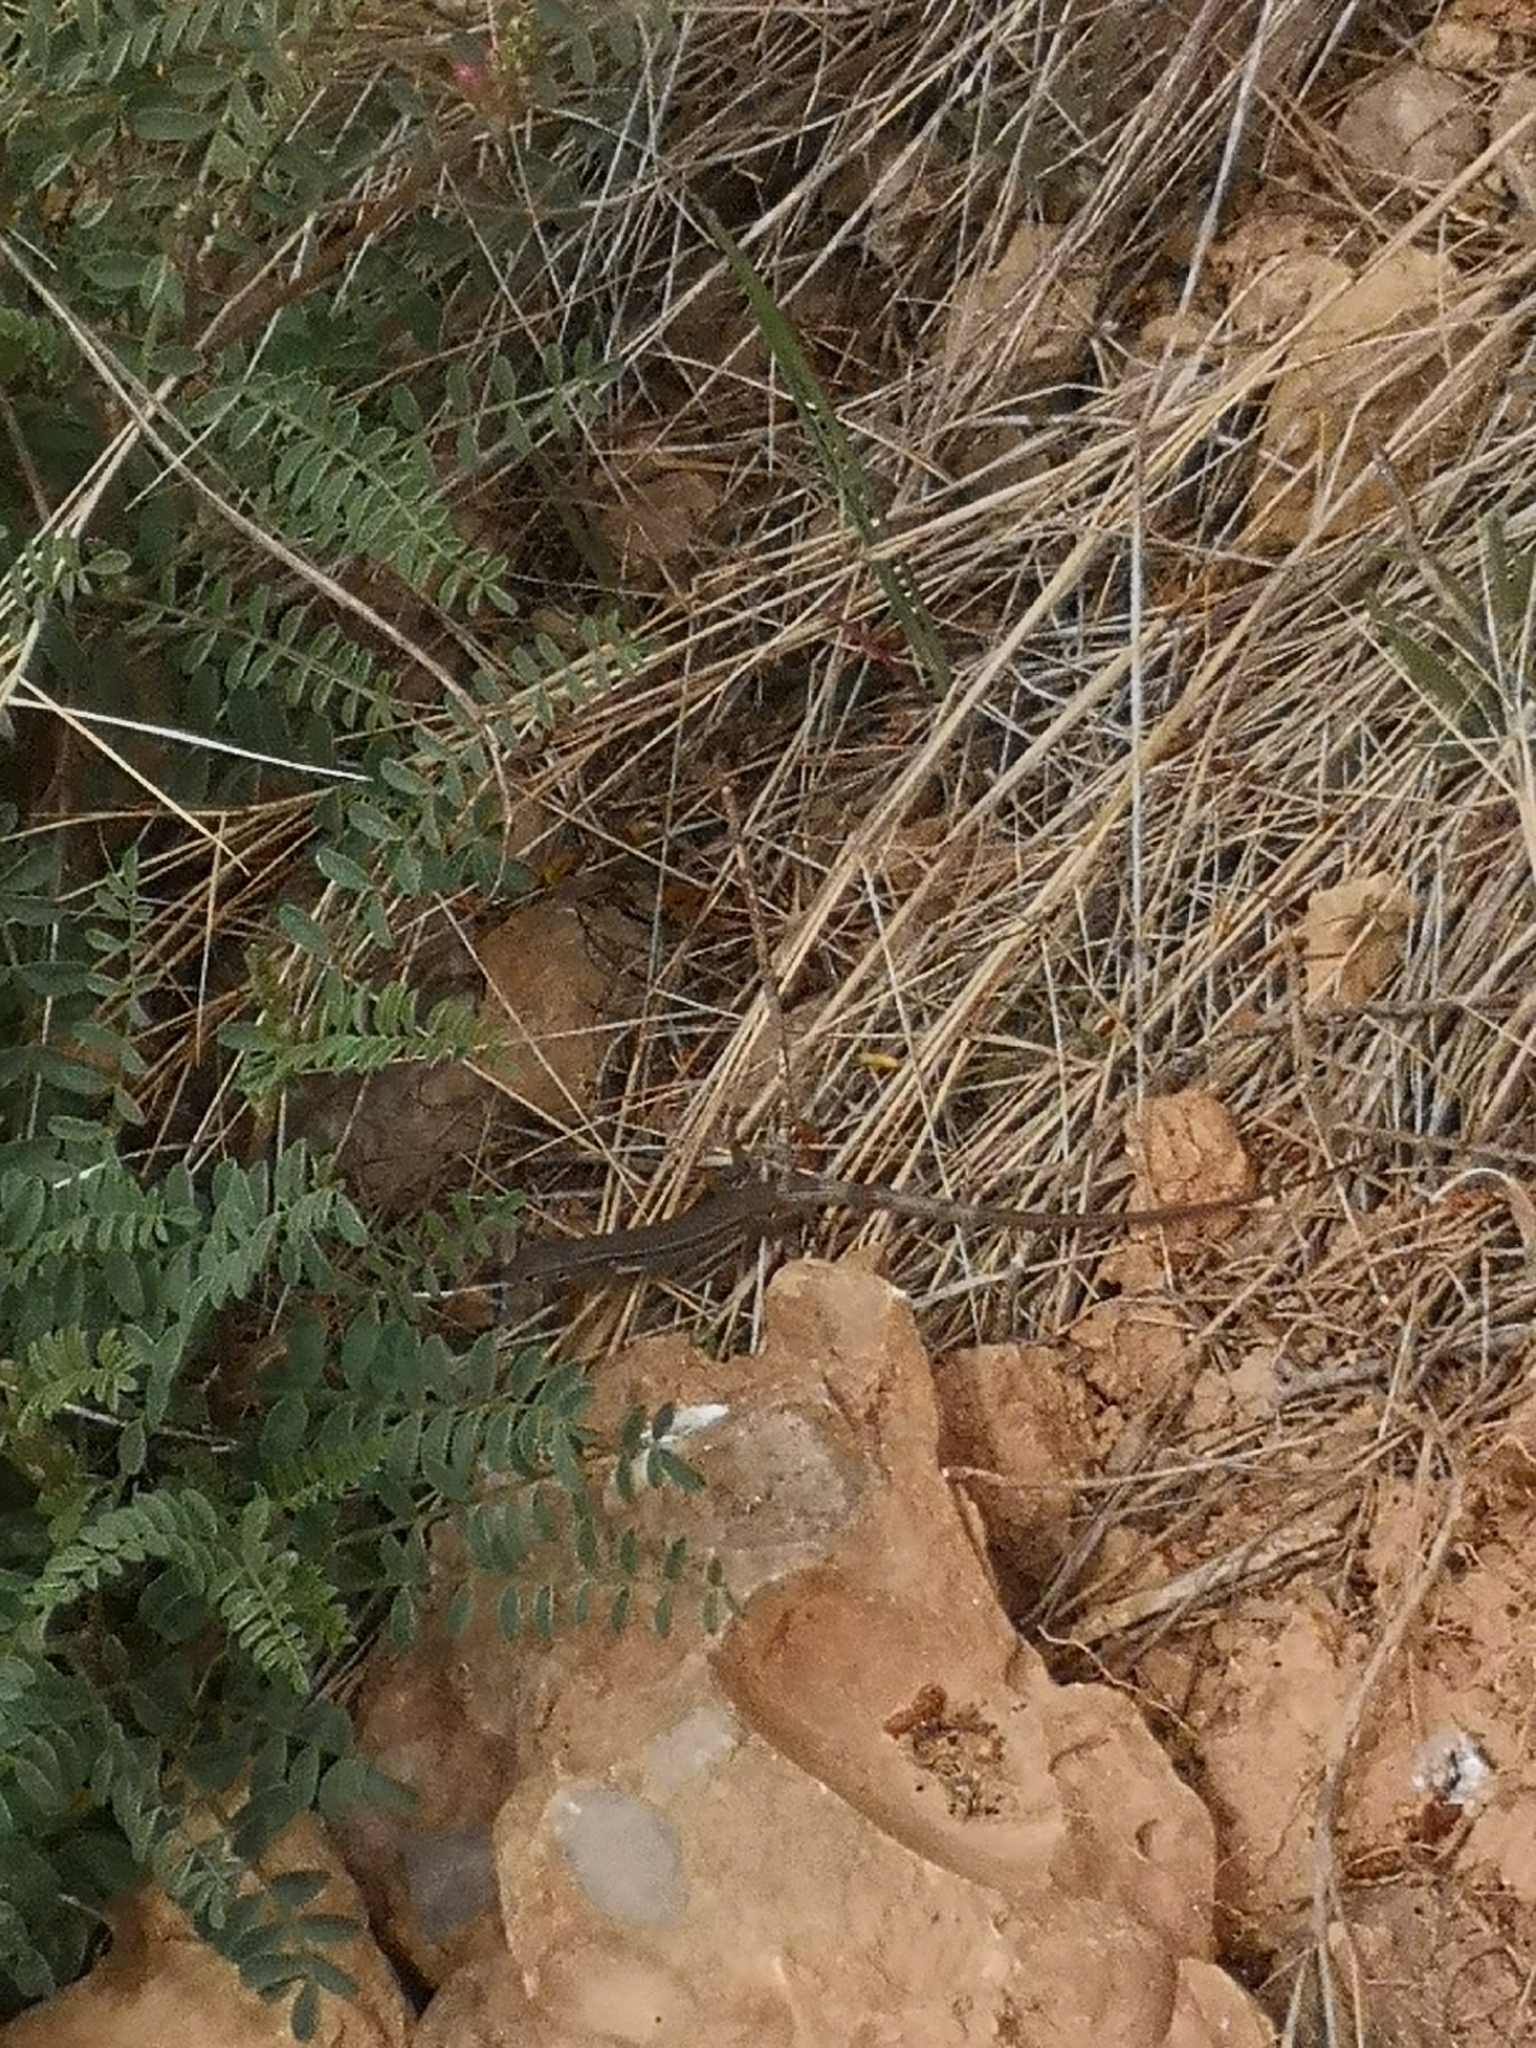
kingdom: Animalia
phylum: Chordata
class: Squamata
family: Lacertidae
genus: Psammodromus
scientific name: Psammodromus algirus
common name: Algerian psammodromus
